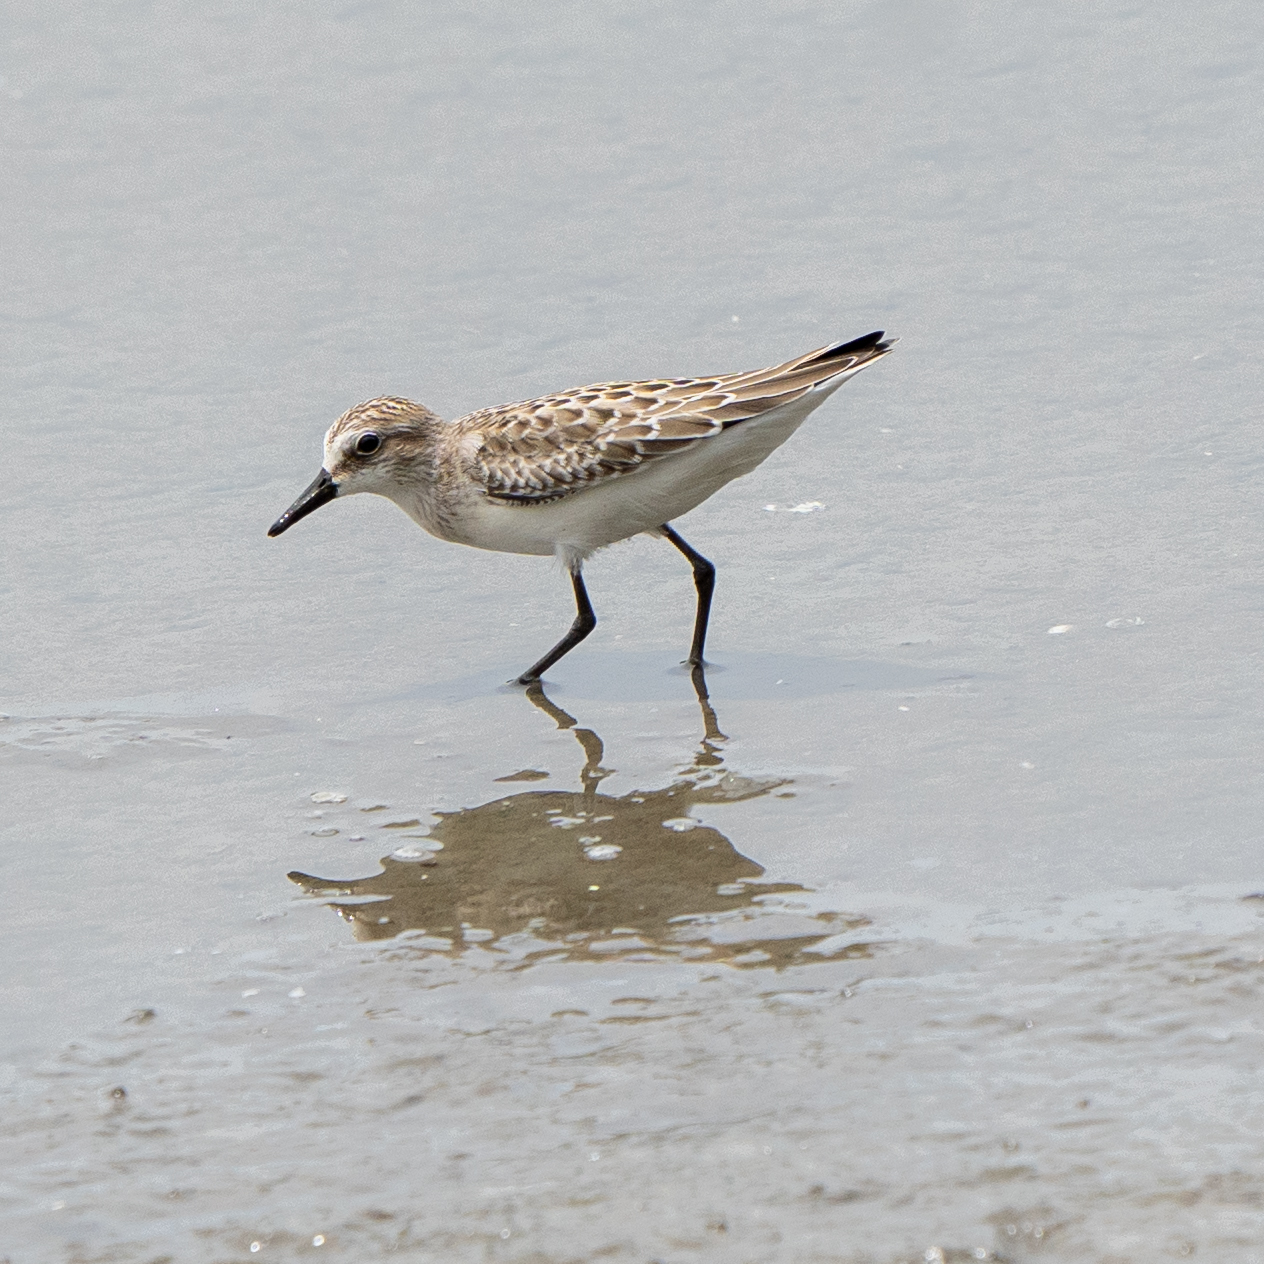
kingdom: Animalia
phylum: Chordata
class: Aves
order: Charadriiformes
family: Scolopacidae
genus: Calidris
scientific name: Calidris pusilla
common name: Semipalmated sandpiper
